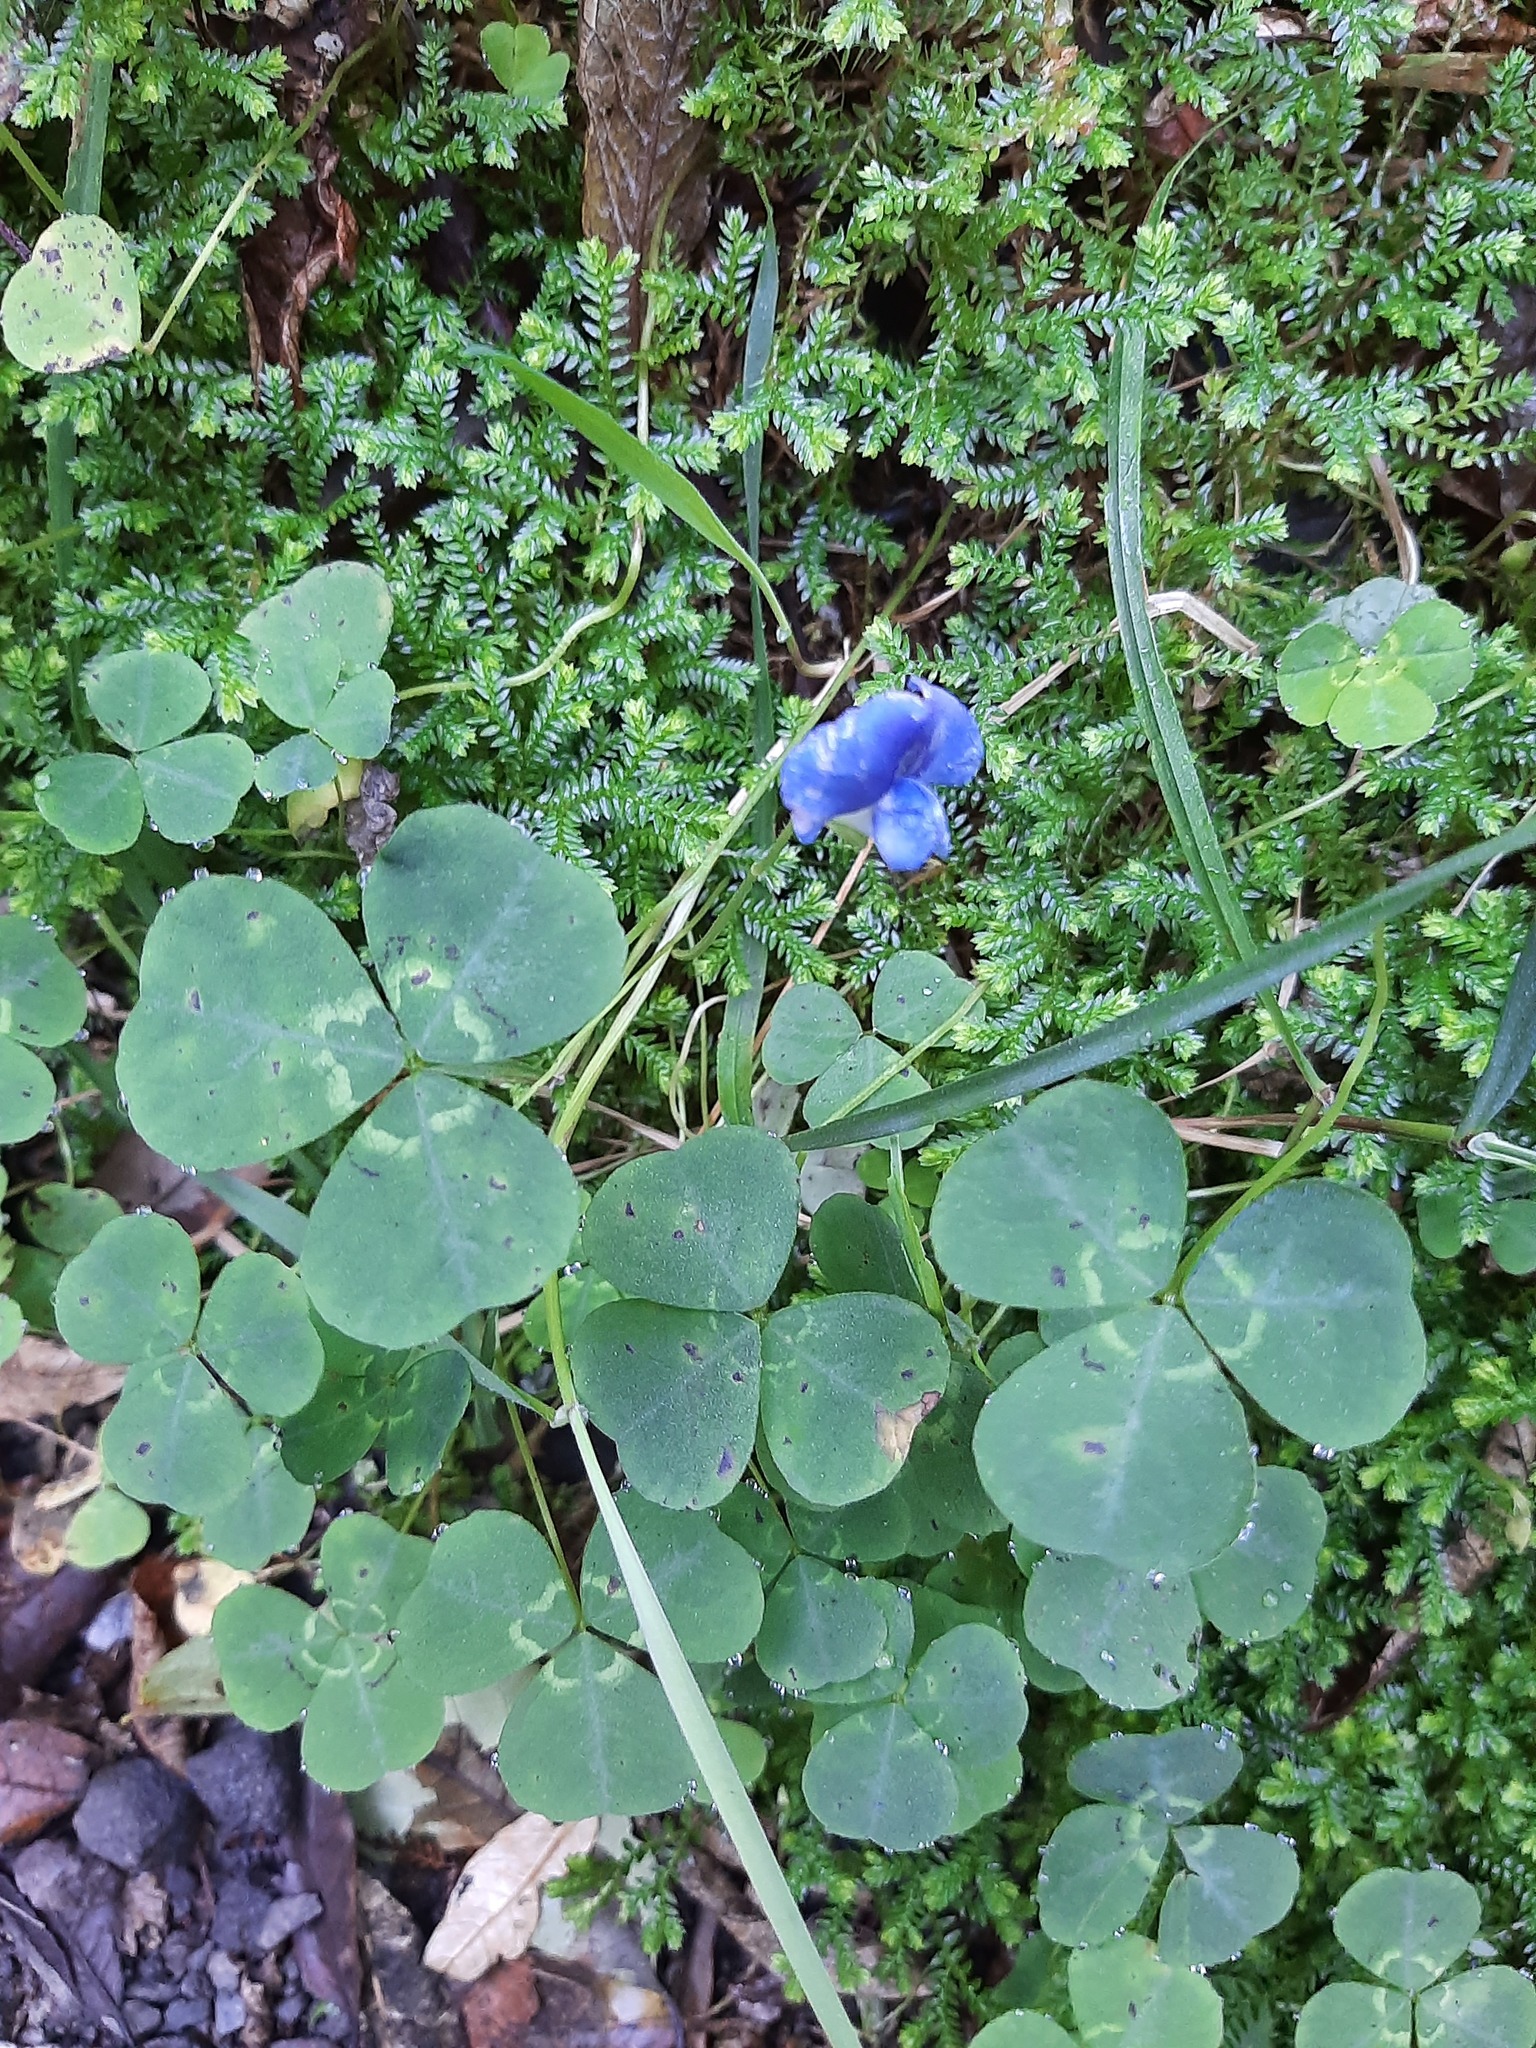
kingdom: Plantae
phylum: Tracheophyta
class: Magnoliopsida
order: Fabales
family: Fabaceae
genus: Parochetus
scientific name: Parochetus communis
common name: Blue oxalis
